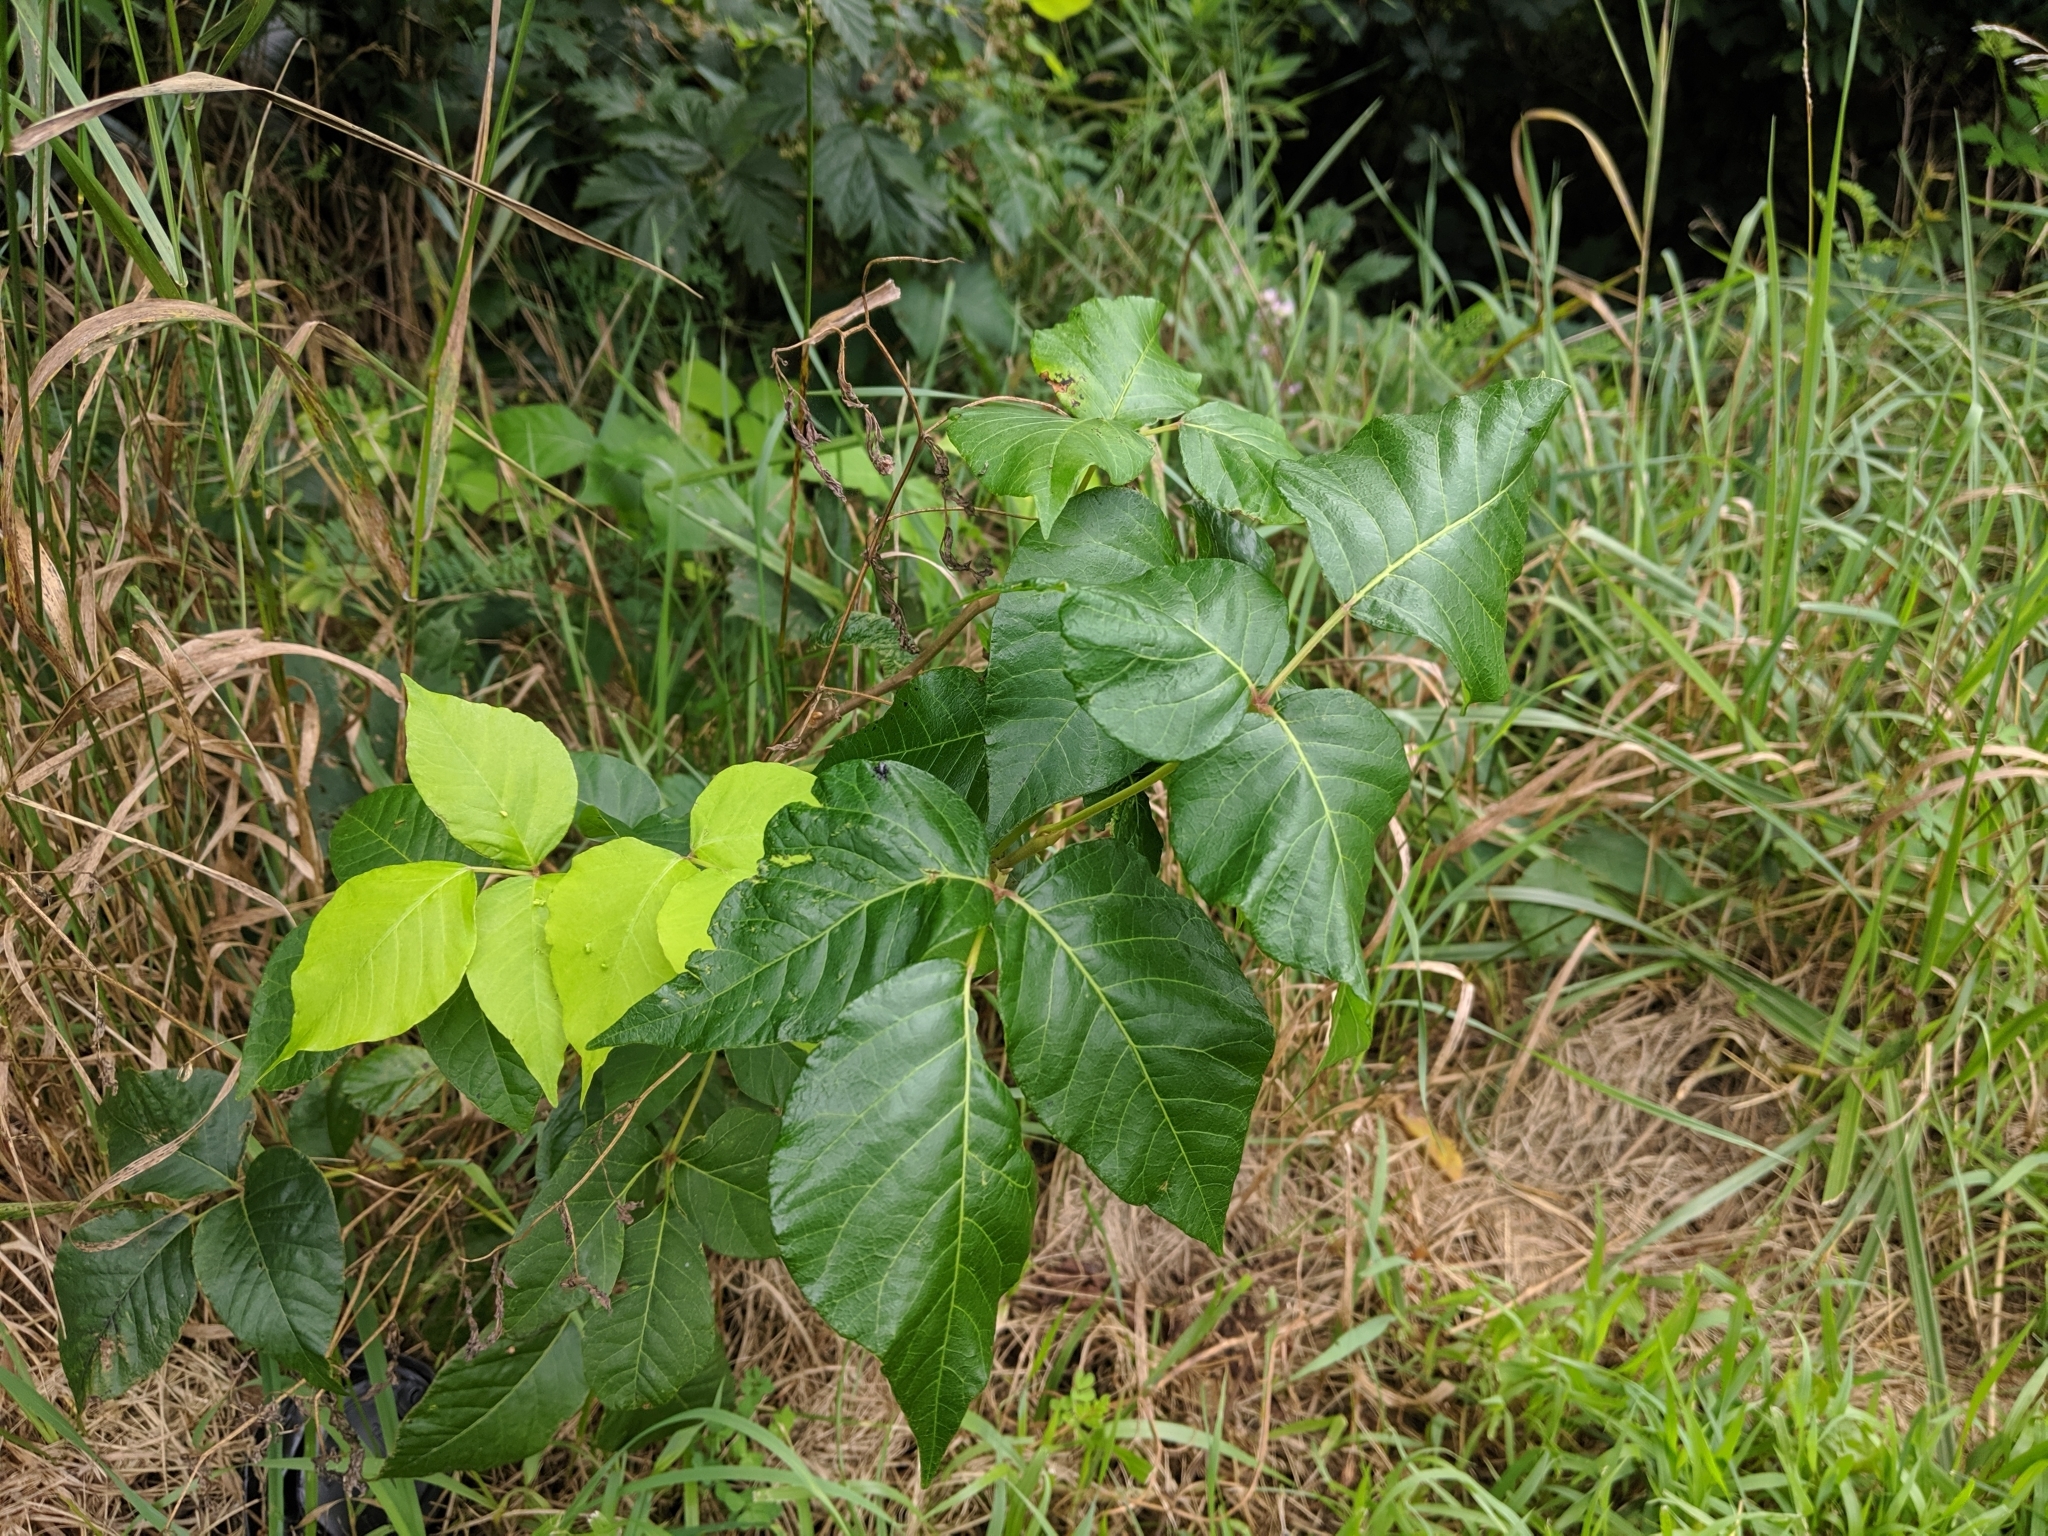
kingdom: Plantae
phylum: Tracheophyta
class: Magnoliopsida
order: Sapindales
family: Anacardiaceae
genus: Toxicodendron
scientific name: Toxicodendron radicans
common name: Poison ivy
